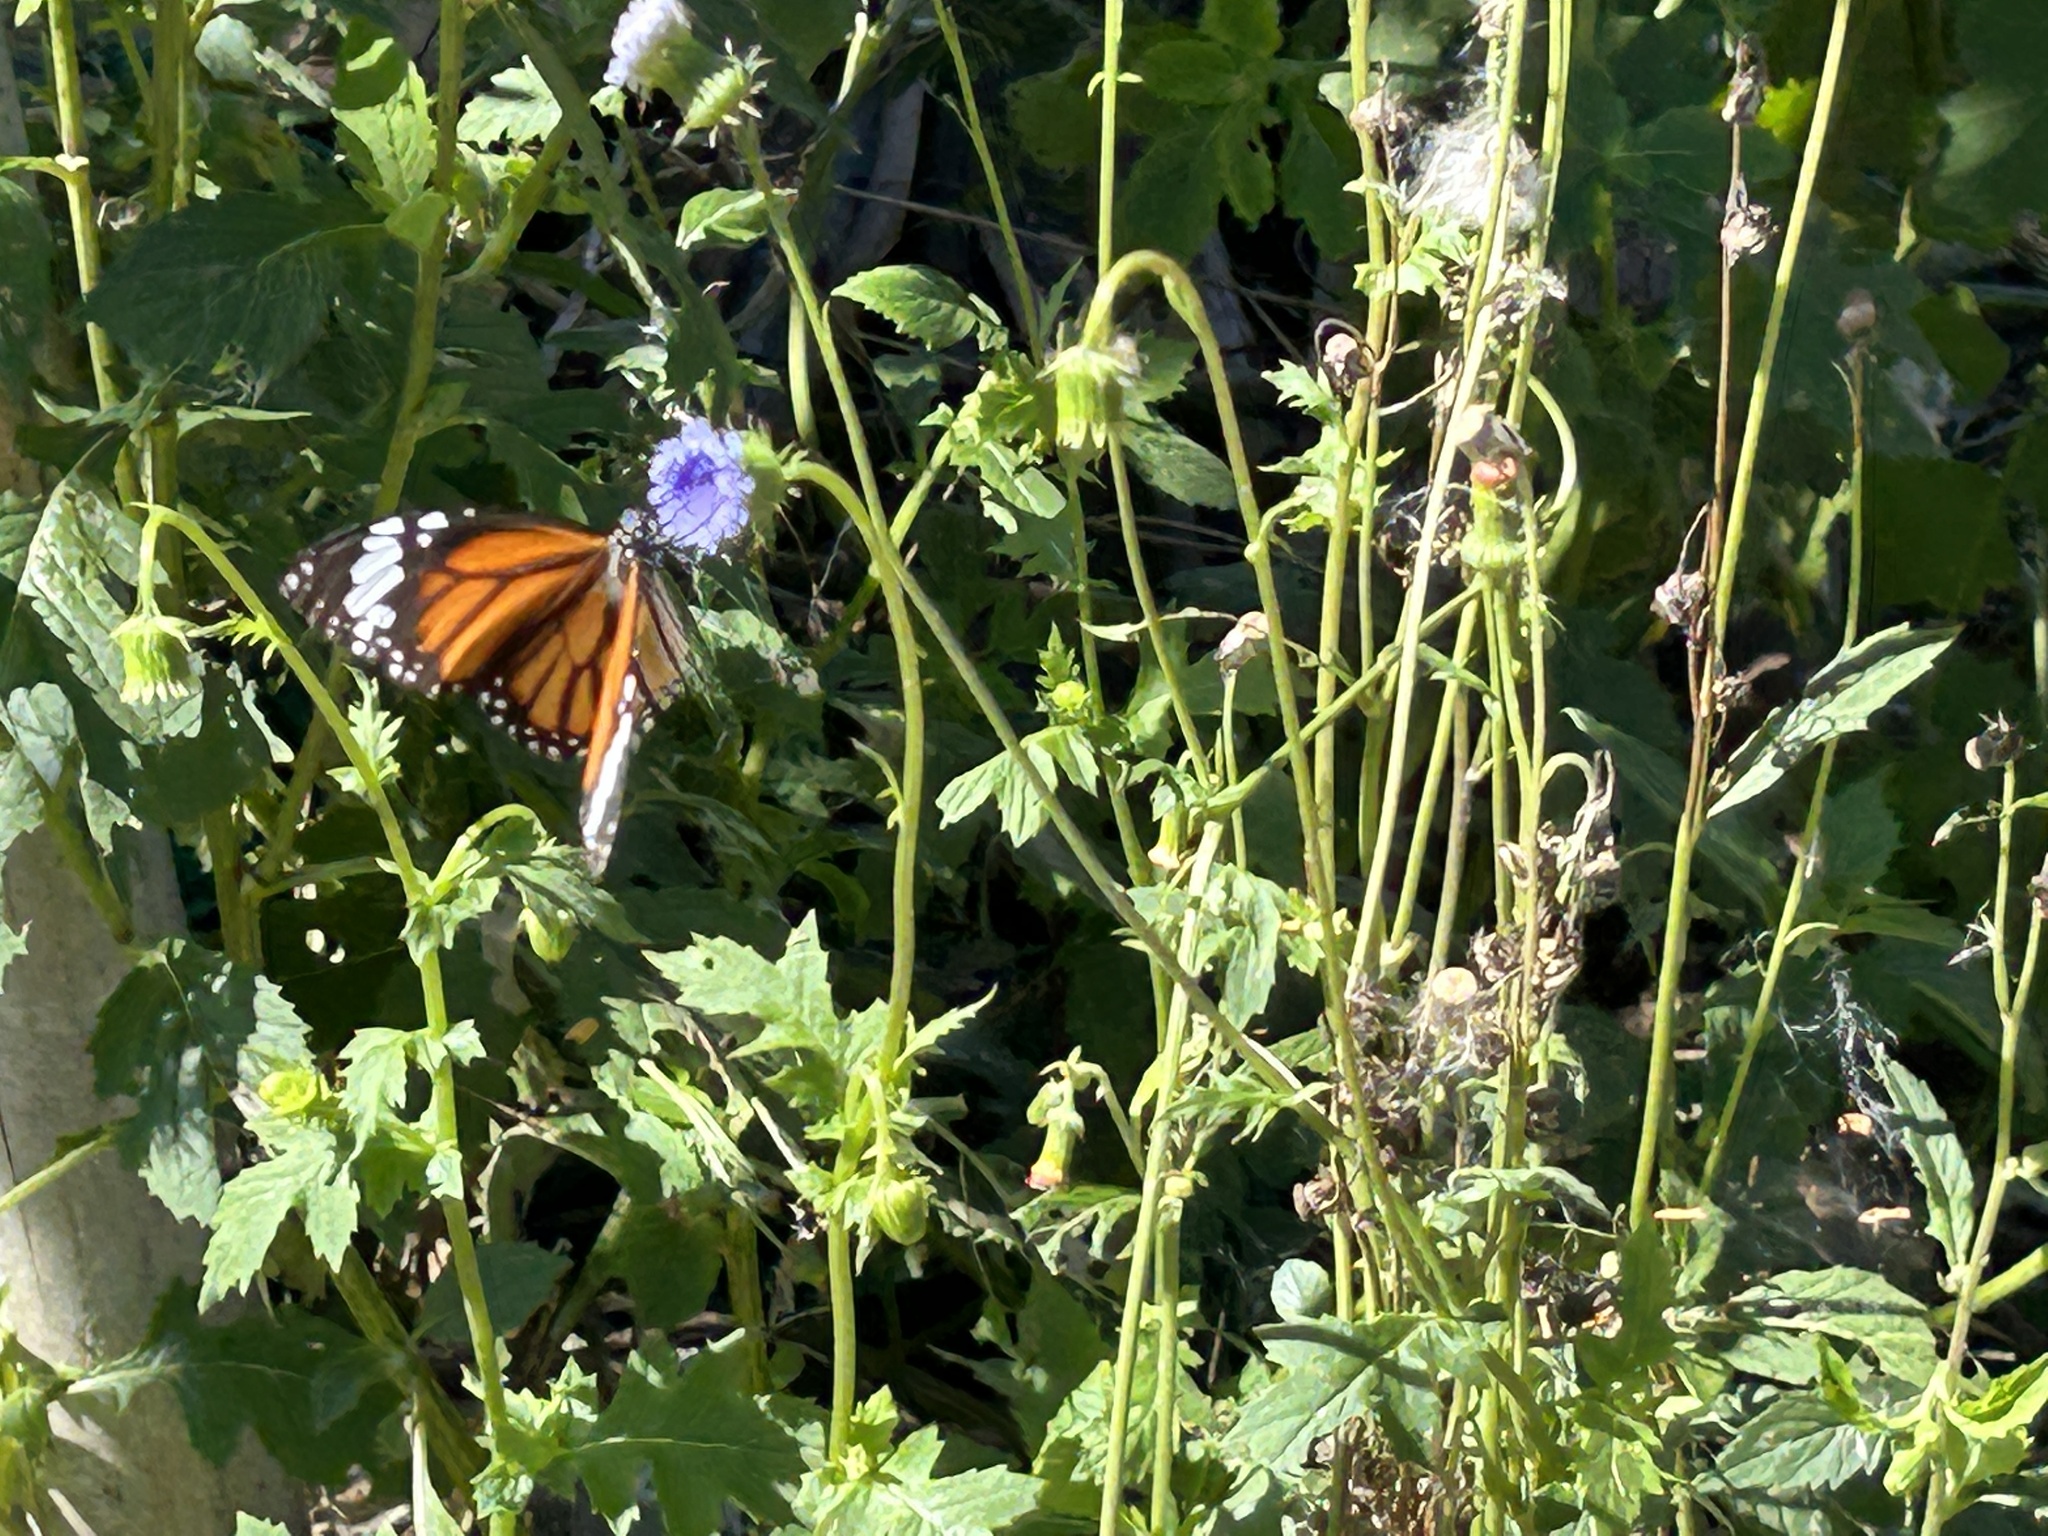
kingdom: Animalia
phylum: Arthropoda
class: Insecta
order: Lepidoptera
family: Nymphalidae
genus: Danaus
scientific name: Danaus genutia
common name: Common tiger butterfly
